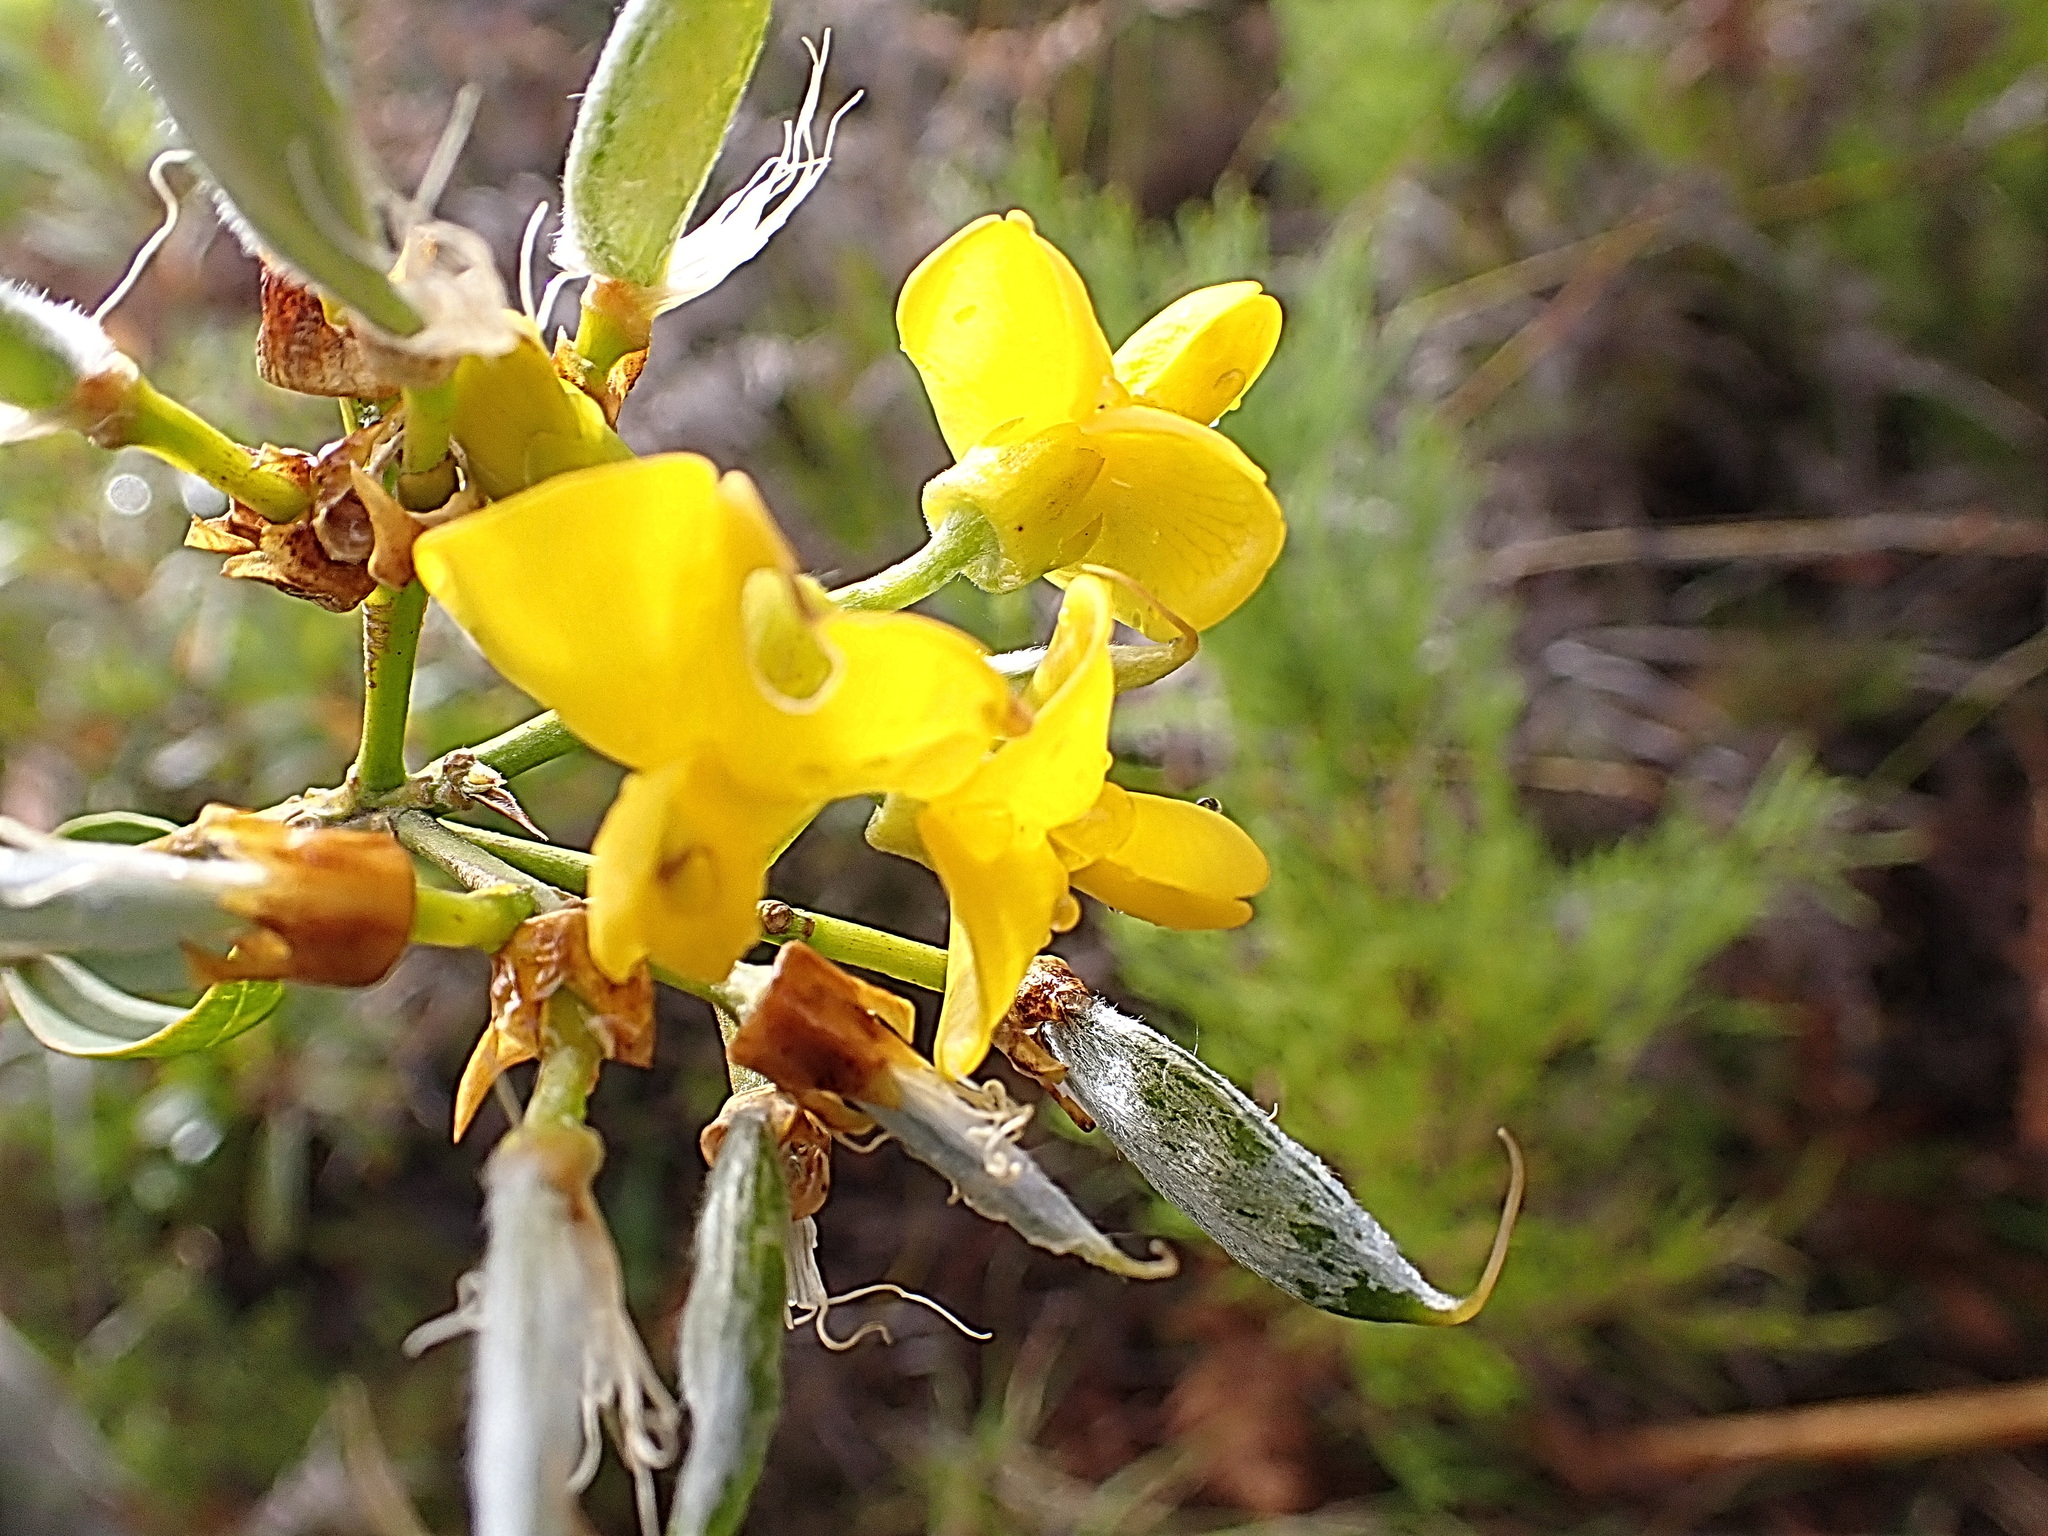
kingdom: Plantae
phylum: Tracheophyta
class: Magnoliopsida
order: Fabales
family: Fabaceae
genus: Liparia
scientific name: Liparia hirsuta
